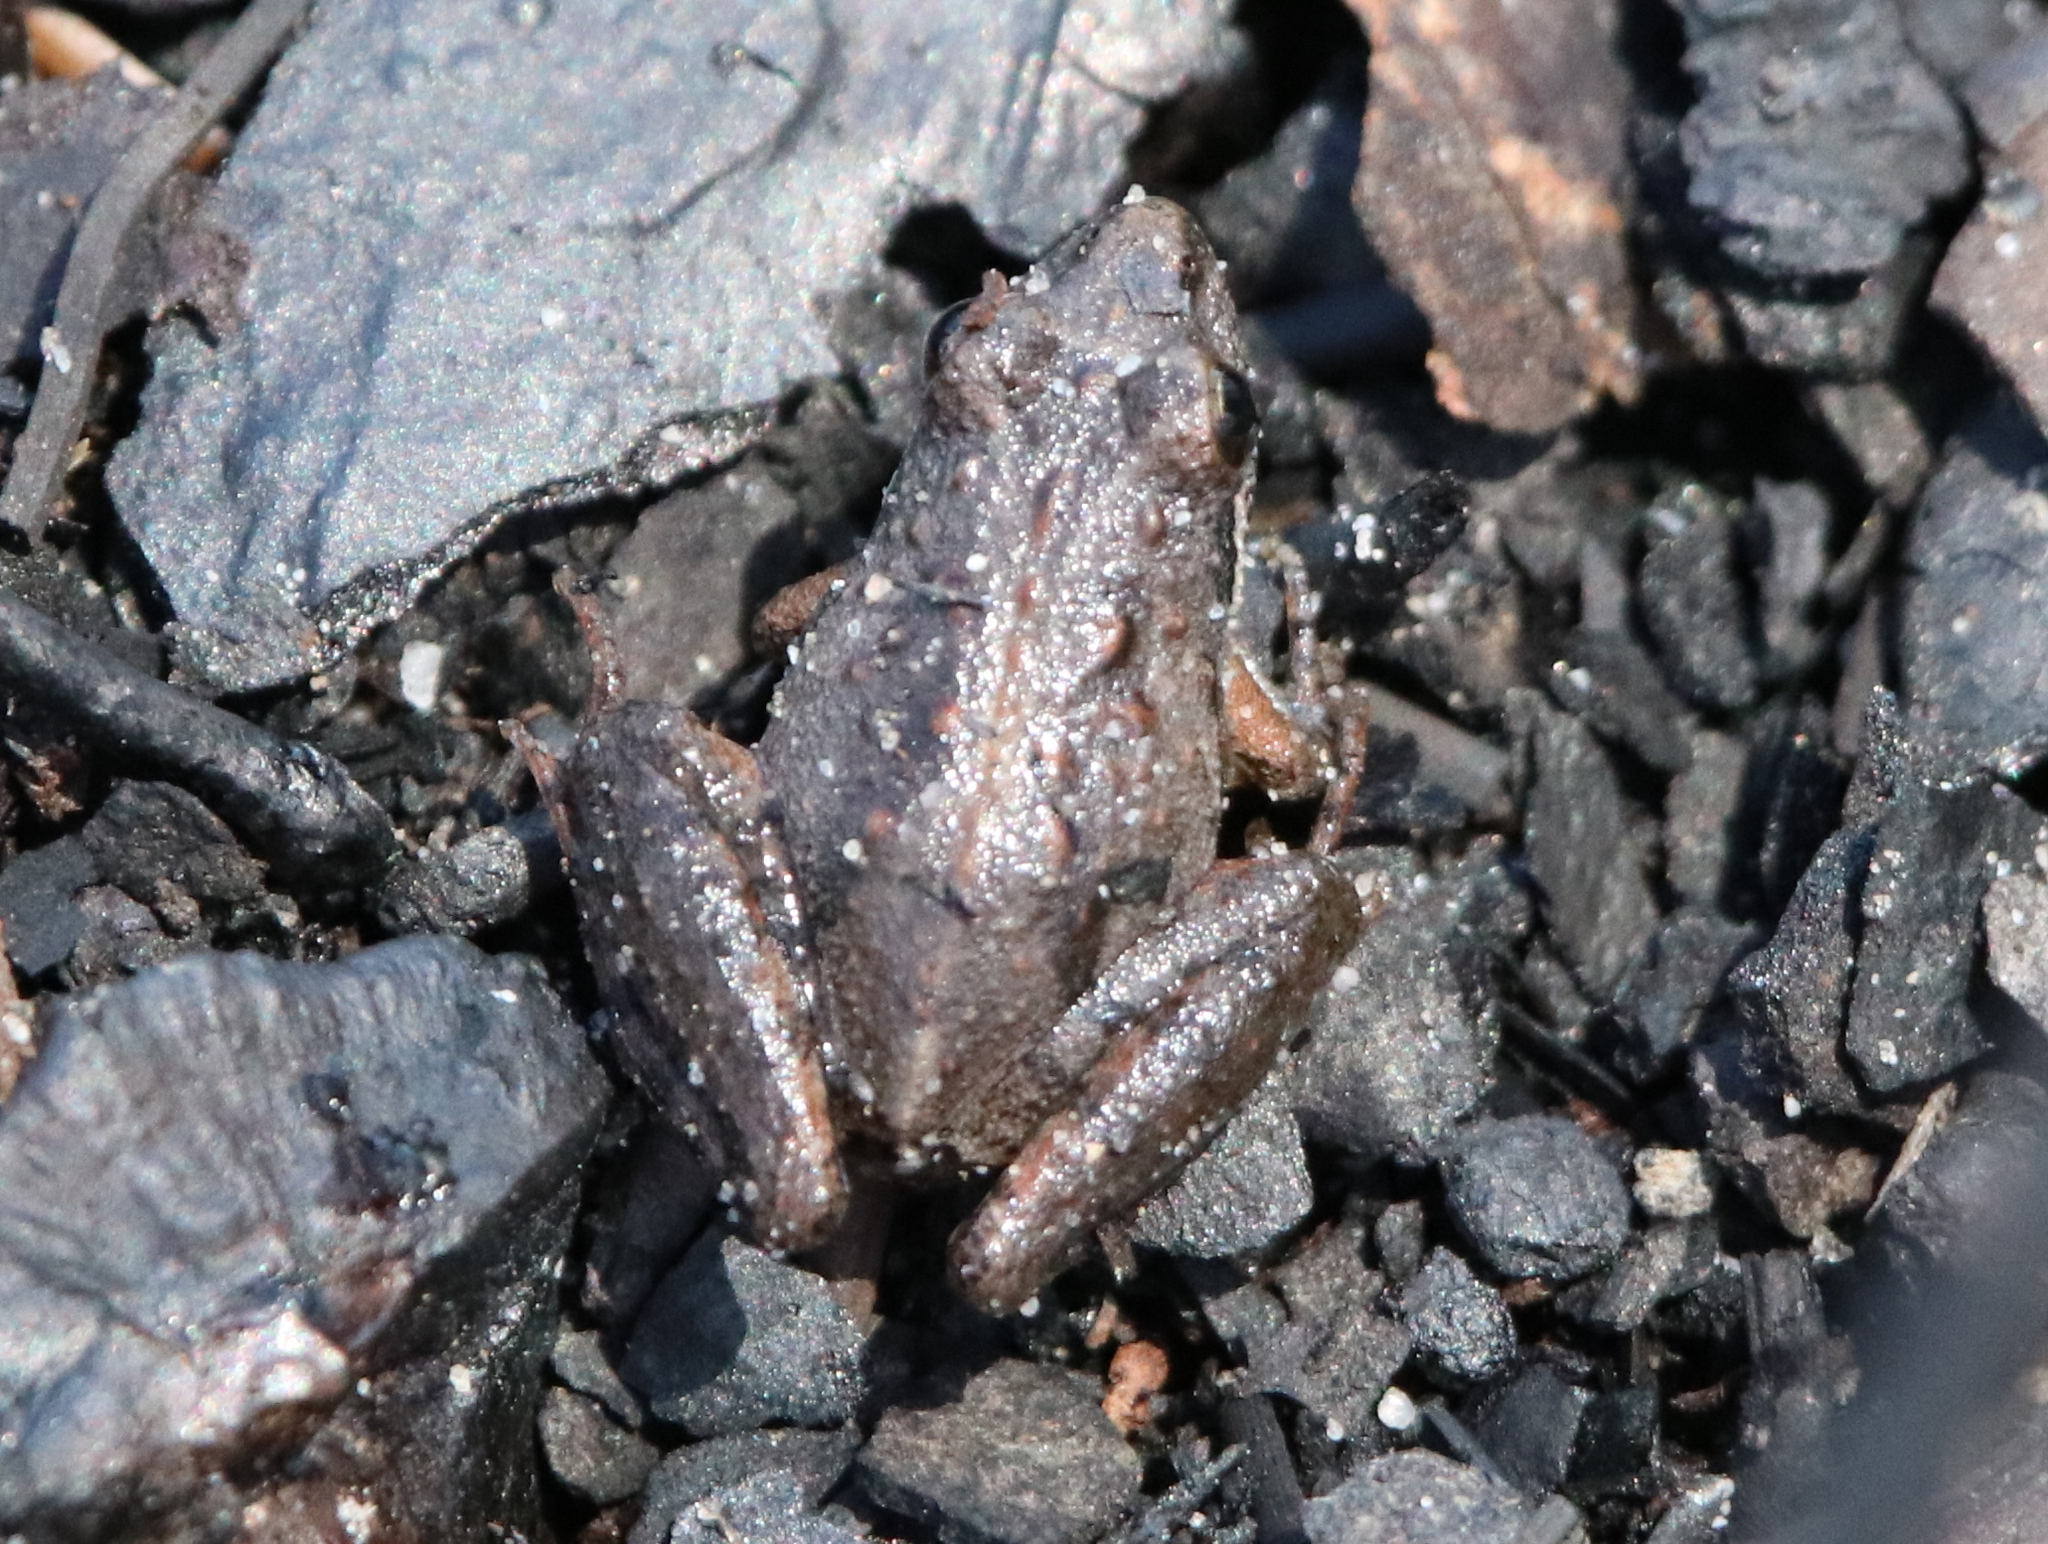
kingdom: Animalia
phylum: Chordata
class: Amphibia
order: Anura
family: Hylidae
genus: Acris
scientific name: Acris gryllus
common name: Southern cricket frog
